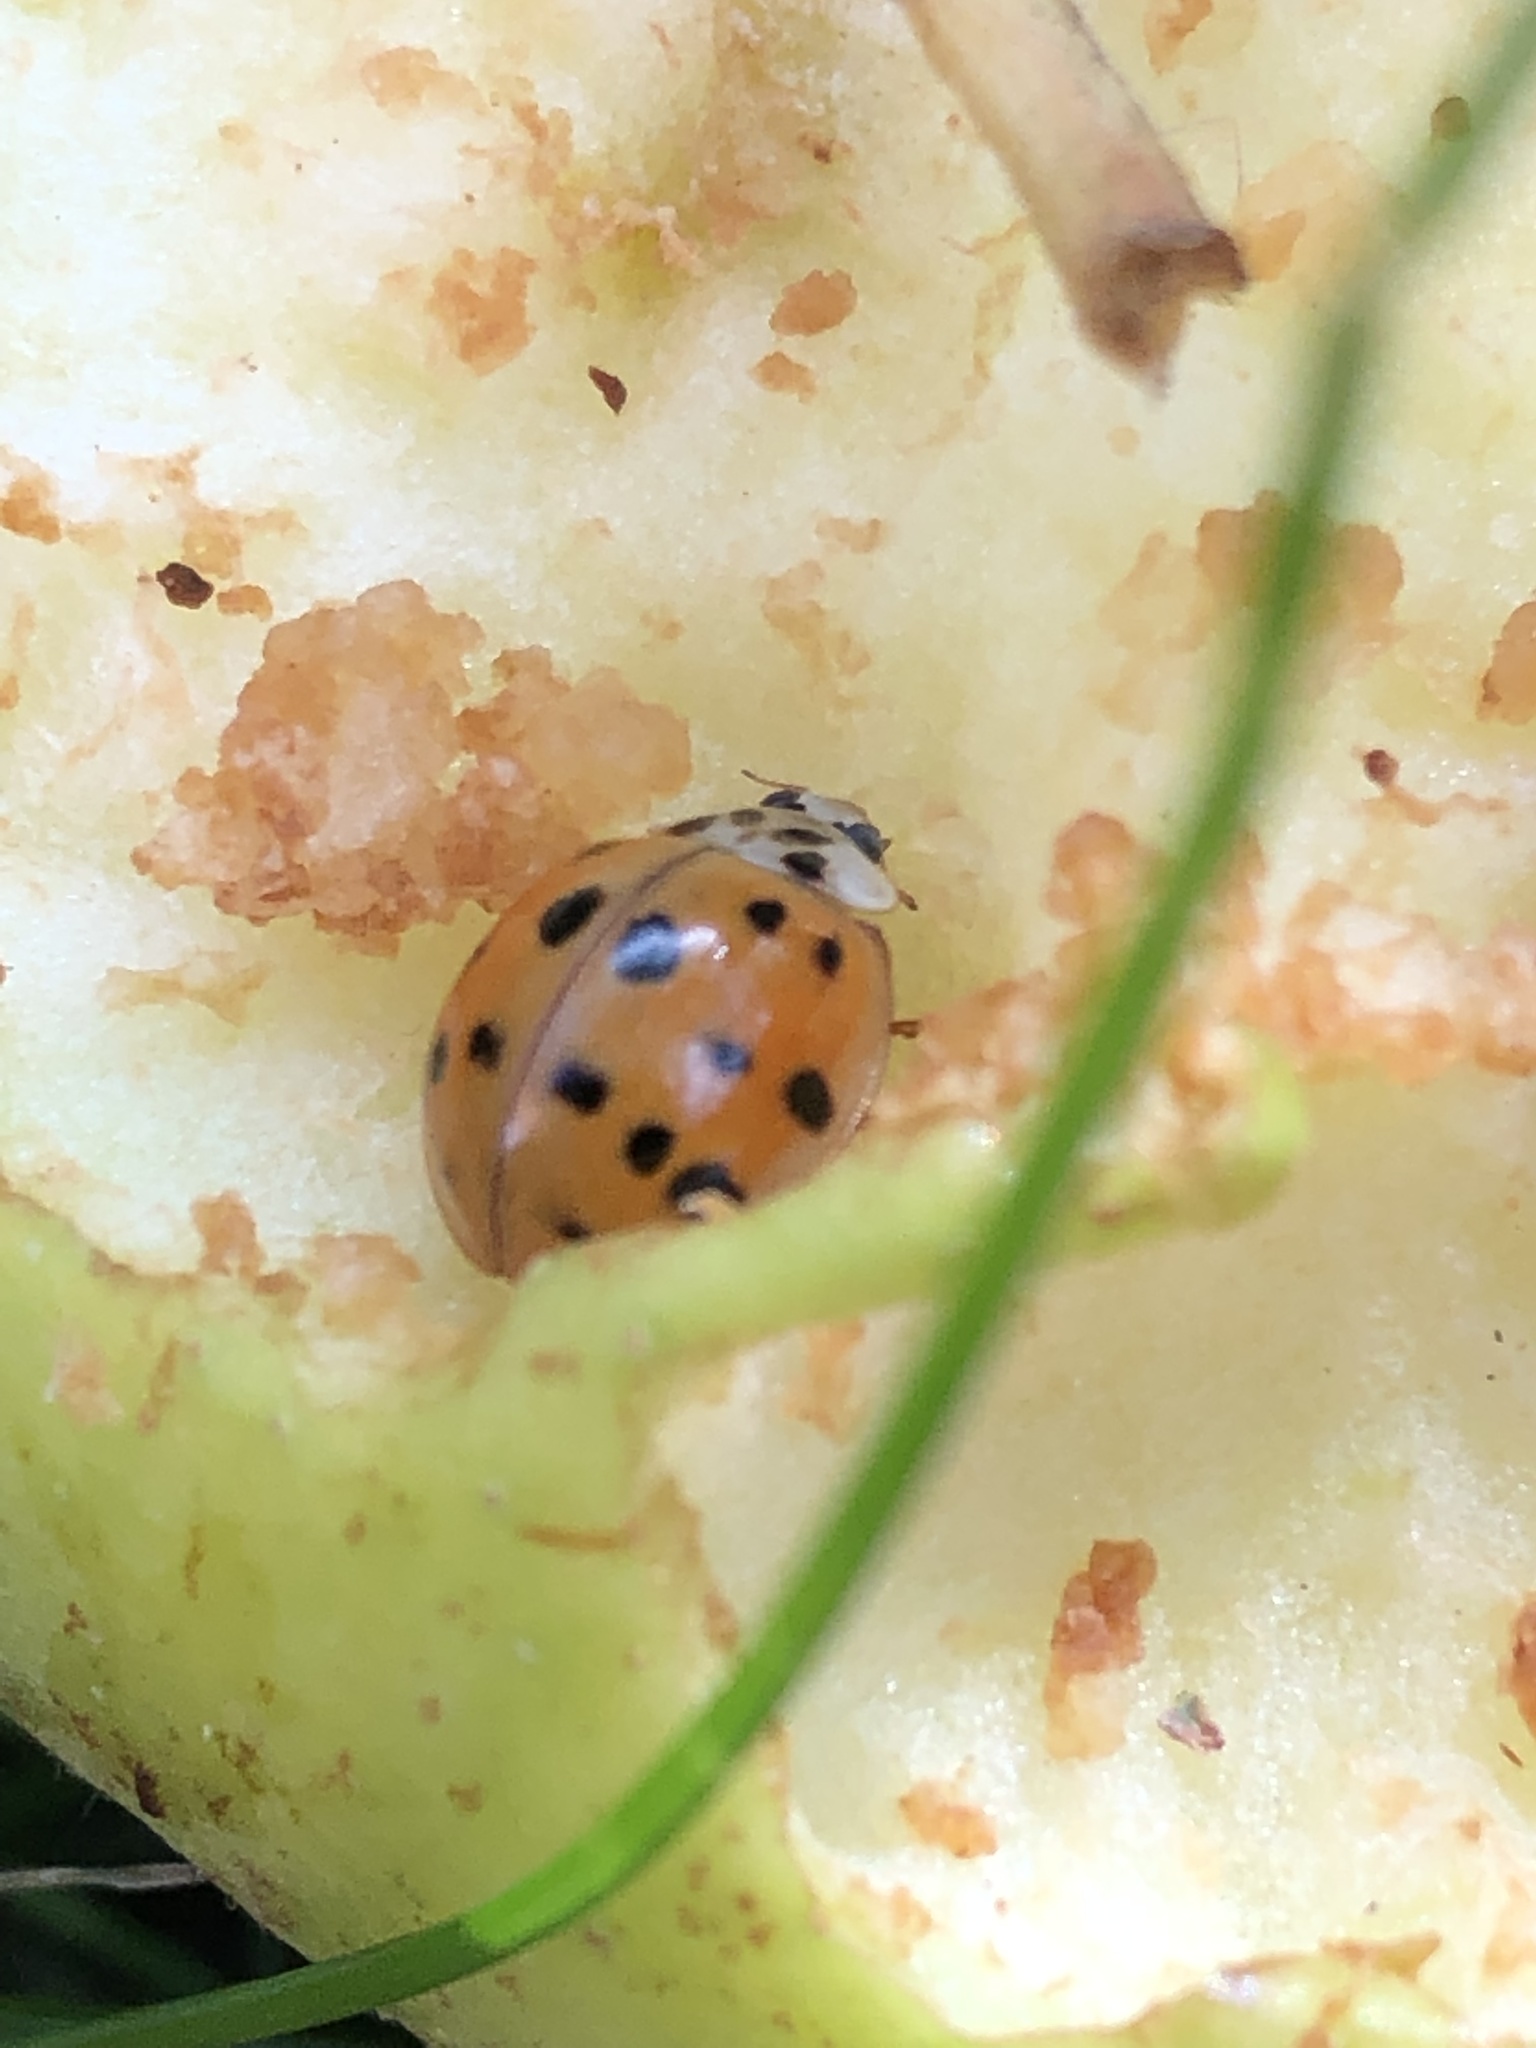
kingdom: Animalia
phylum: Arthropoda
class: Insecta
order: Coleoptera
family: Coccinellidae
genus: Harmonia
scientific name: Harmonia axyridis
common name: Harlequin ladybird
